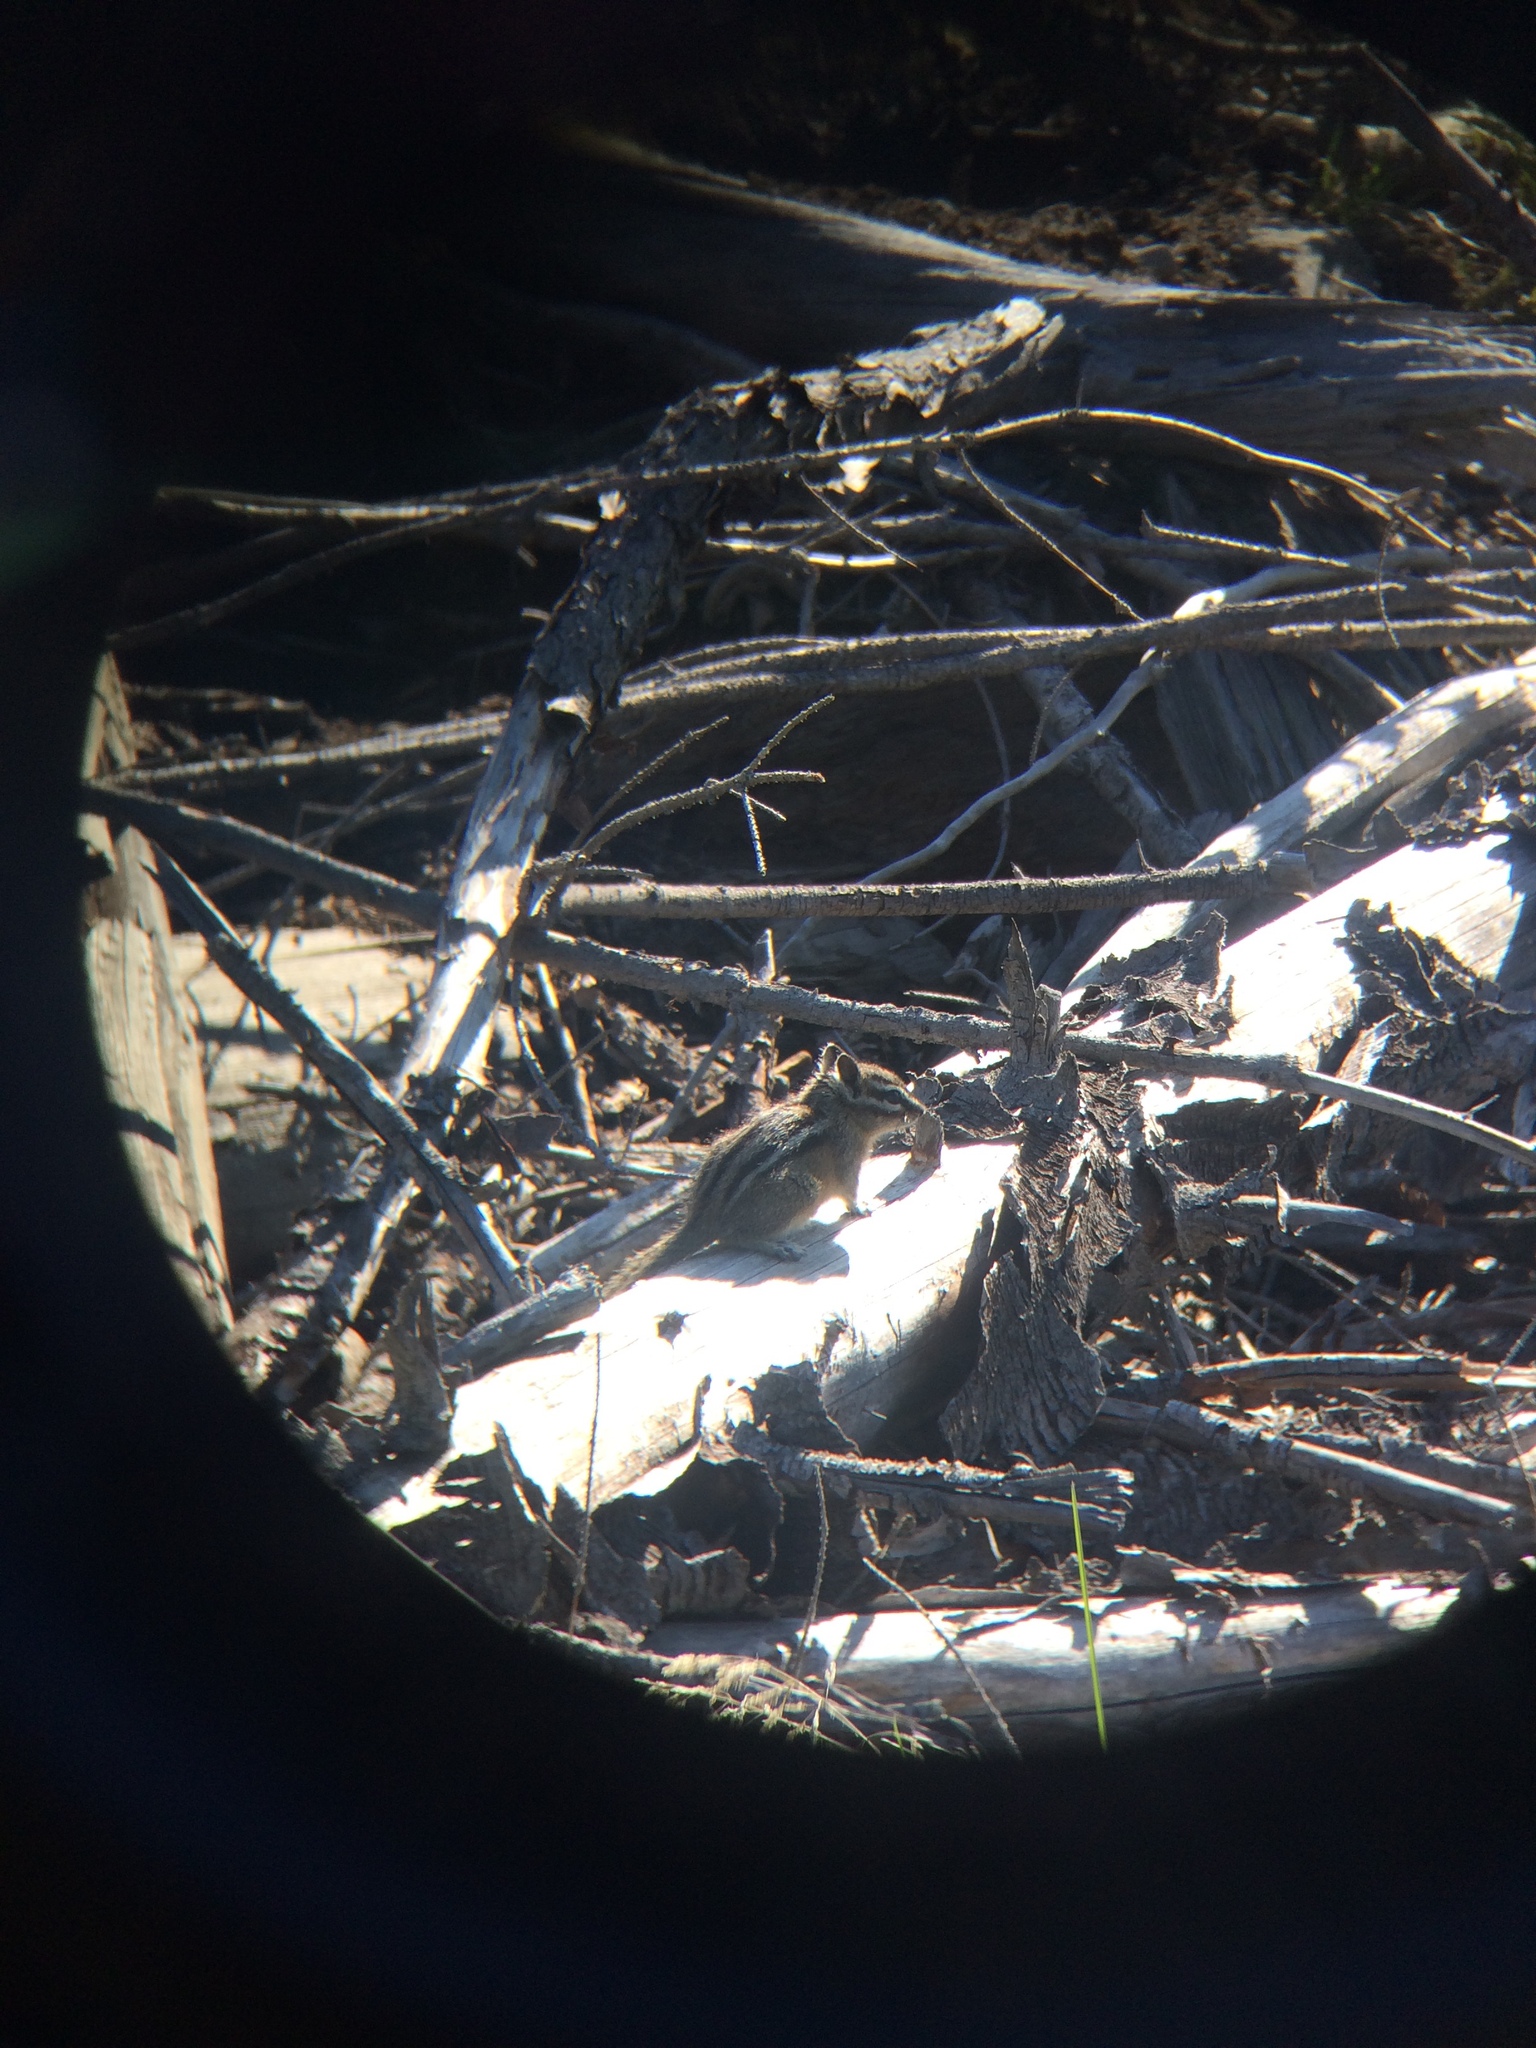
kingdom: Animalia
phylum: Chordata
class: Mammalia
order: Rodentia
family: Sciuridae
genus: Tamias
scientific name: Tamias amoenus
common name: Yellow-pine chipmunk
